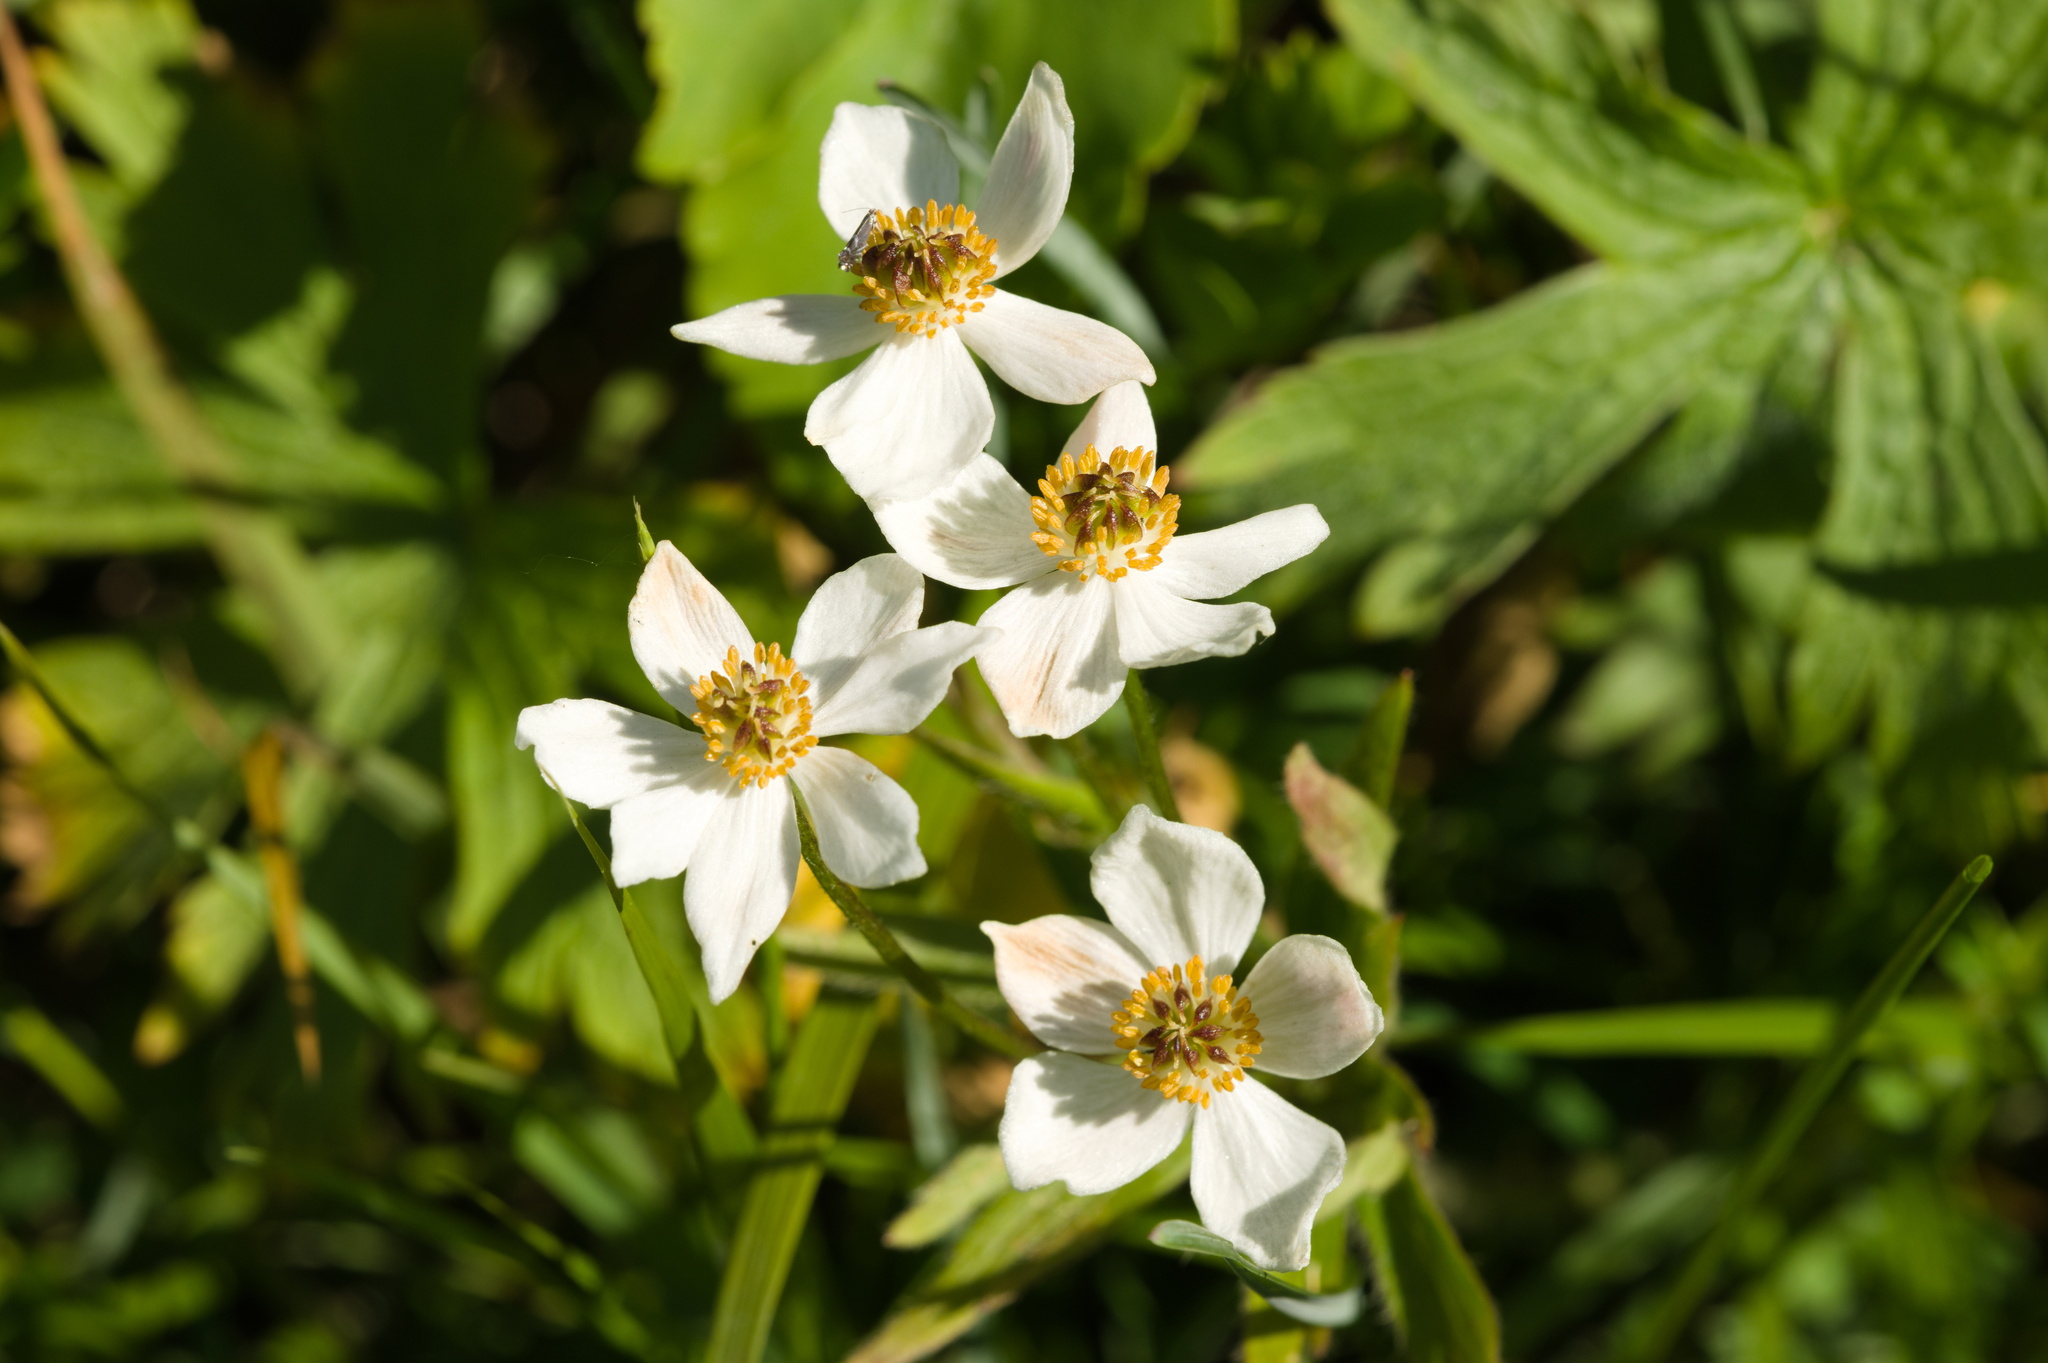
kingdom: Plantae
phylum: Tracheophyta
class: Magnoliopsida
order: Ranunculales
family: Ranunculaceae
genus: Anemonastrum
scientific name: Anemonastrum narcissiflorum
